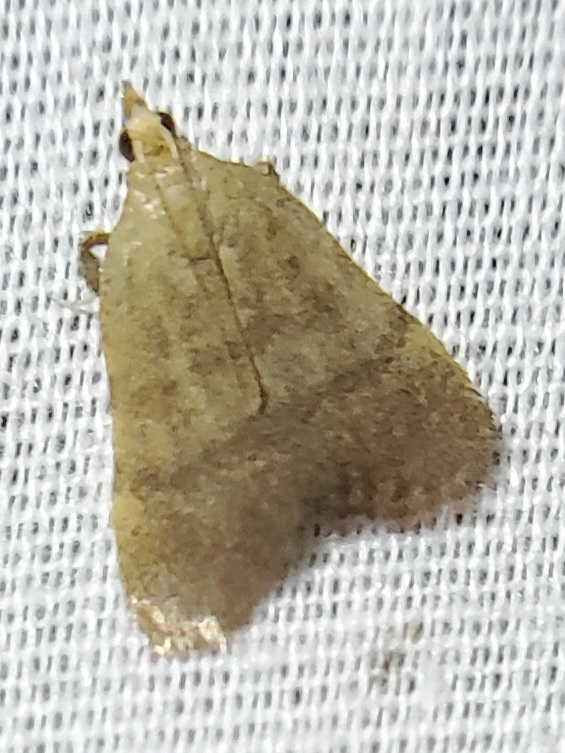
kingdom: Animalia
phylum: Arthropoda
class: Insecta
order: Lepidoptera
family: Pyralidae
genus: Condylolomia
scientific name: Condylolomia participialis
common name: Drab condylolomia moth
